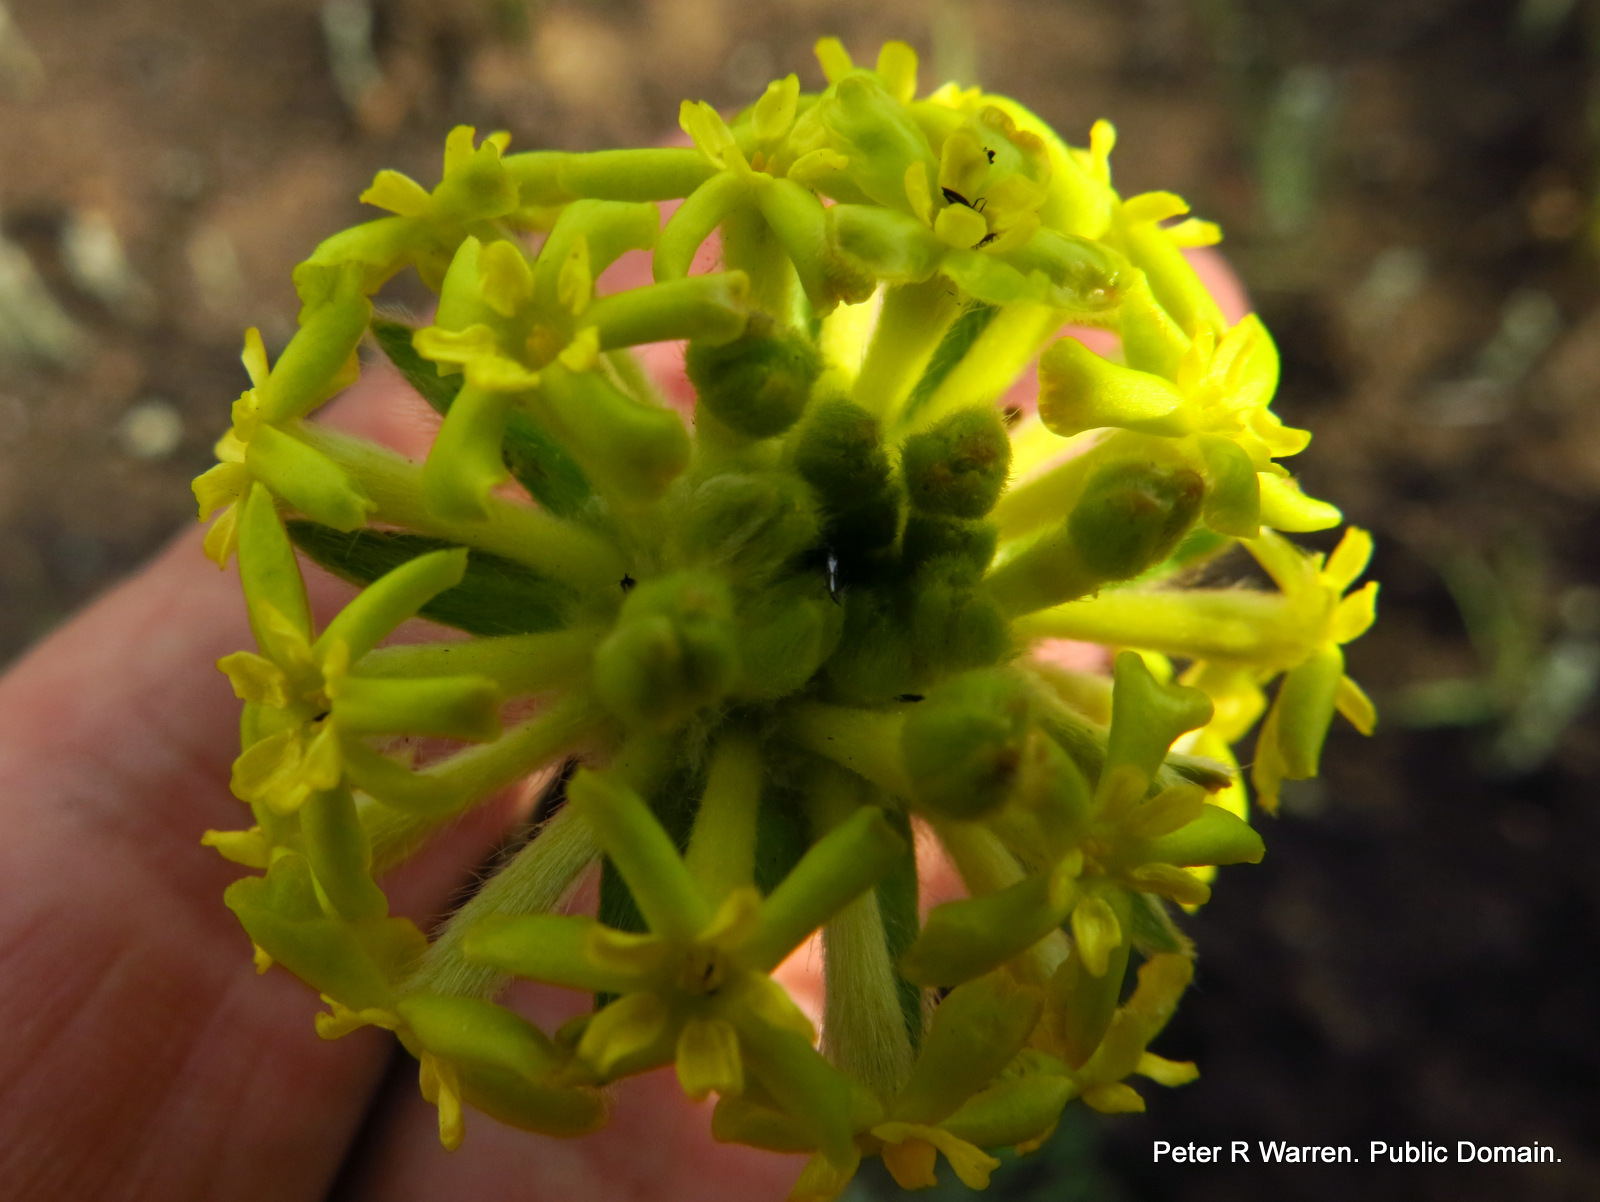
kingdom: Plantae
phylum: Tracheophyta
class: Magnoliopsida
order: Malvales
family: Thymelaeaceae
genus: Gnidia
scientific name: Gnidia kraussiana
